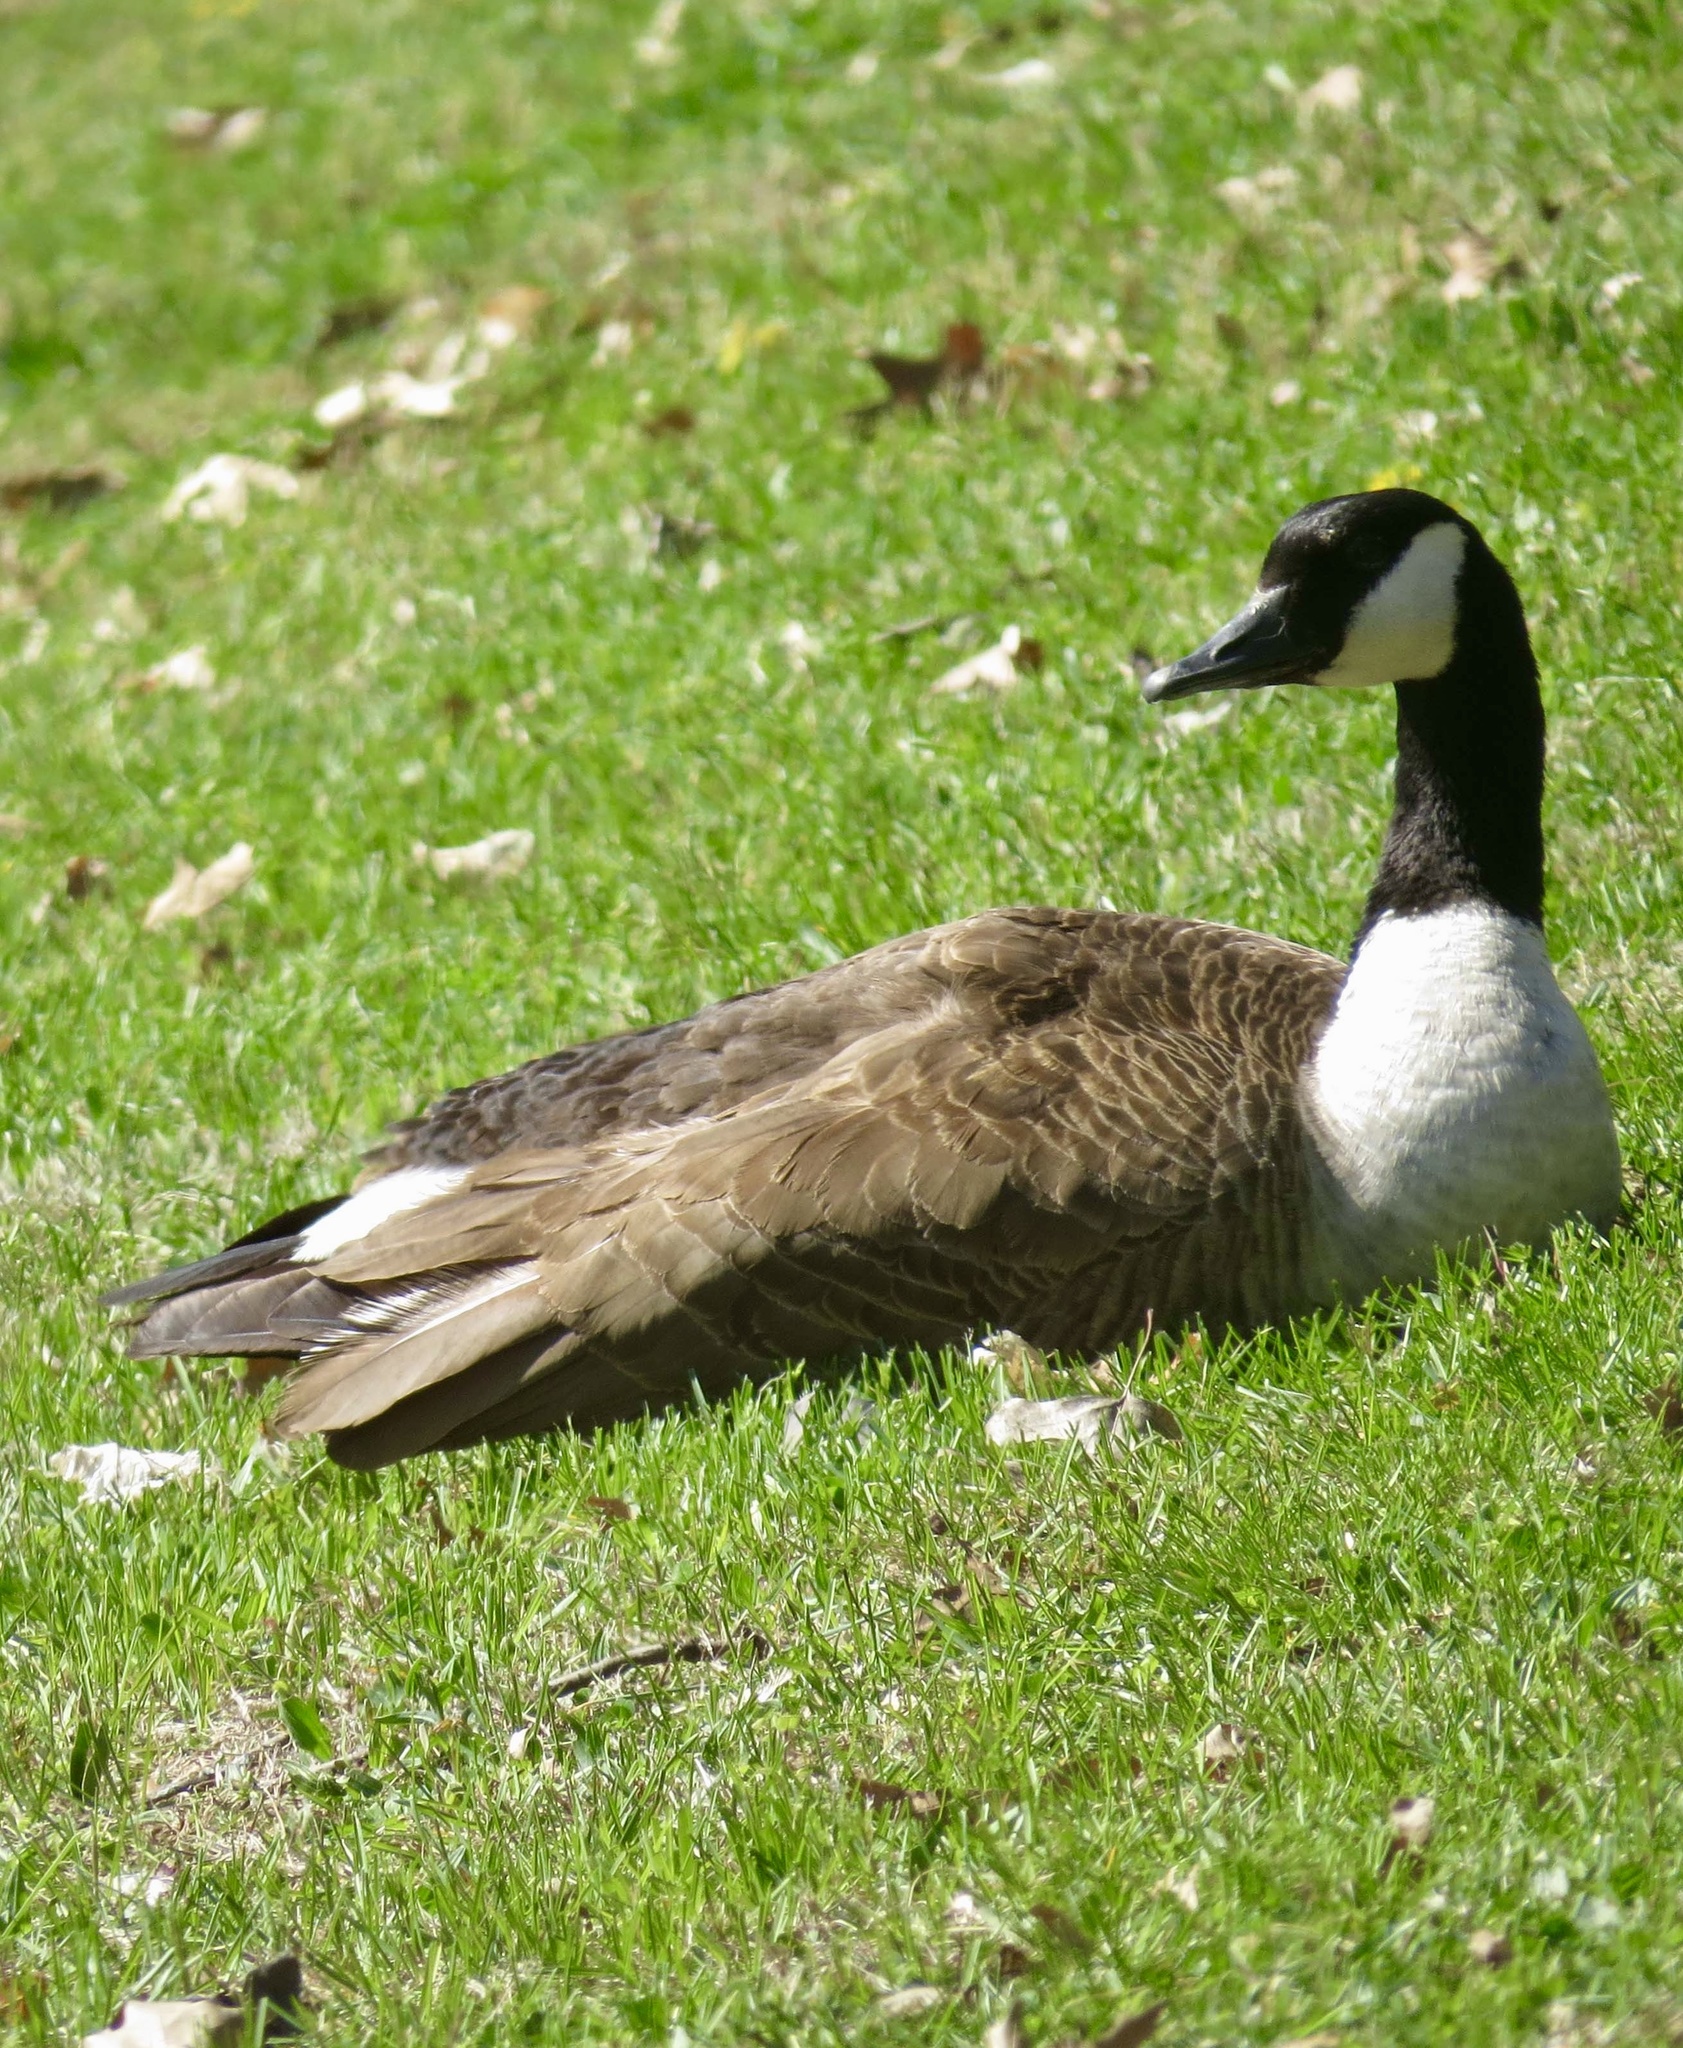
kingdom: Animalia
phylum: Chordata
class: Aves
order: Anseriformes
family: Anatidae
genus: Branta
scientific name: Branta canadensis
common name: Canada goose
